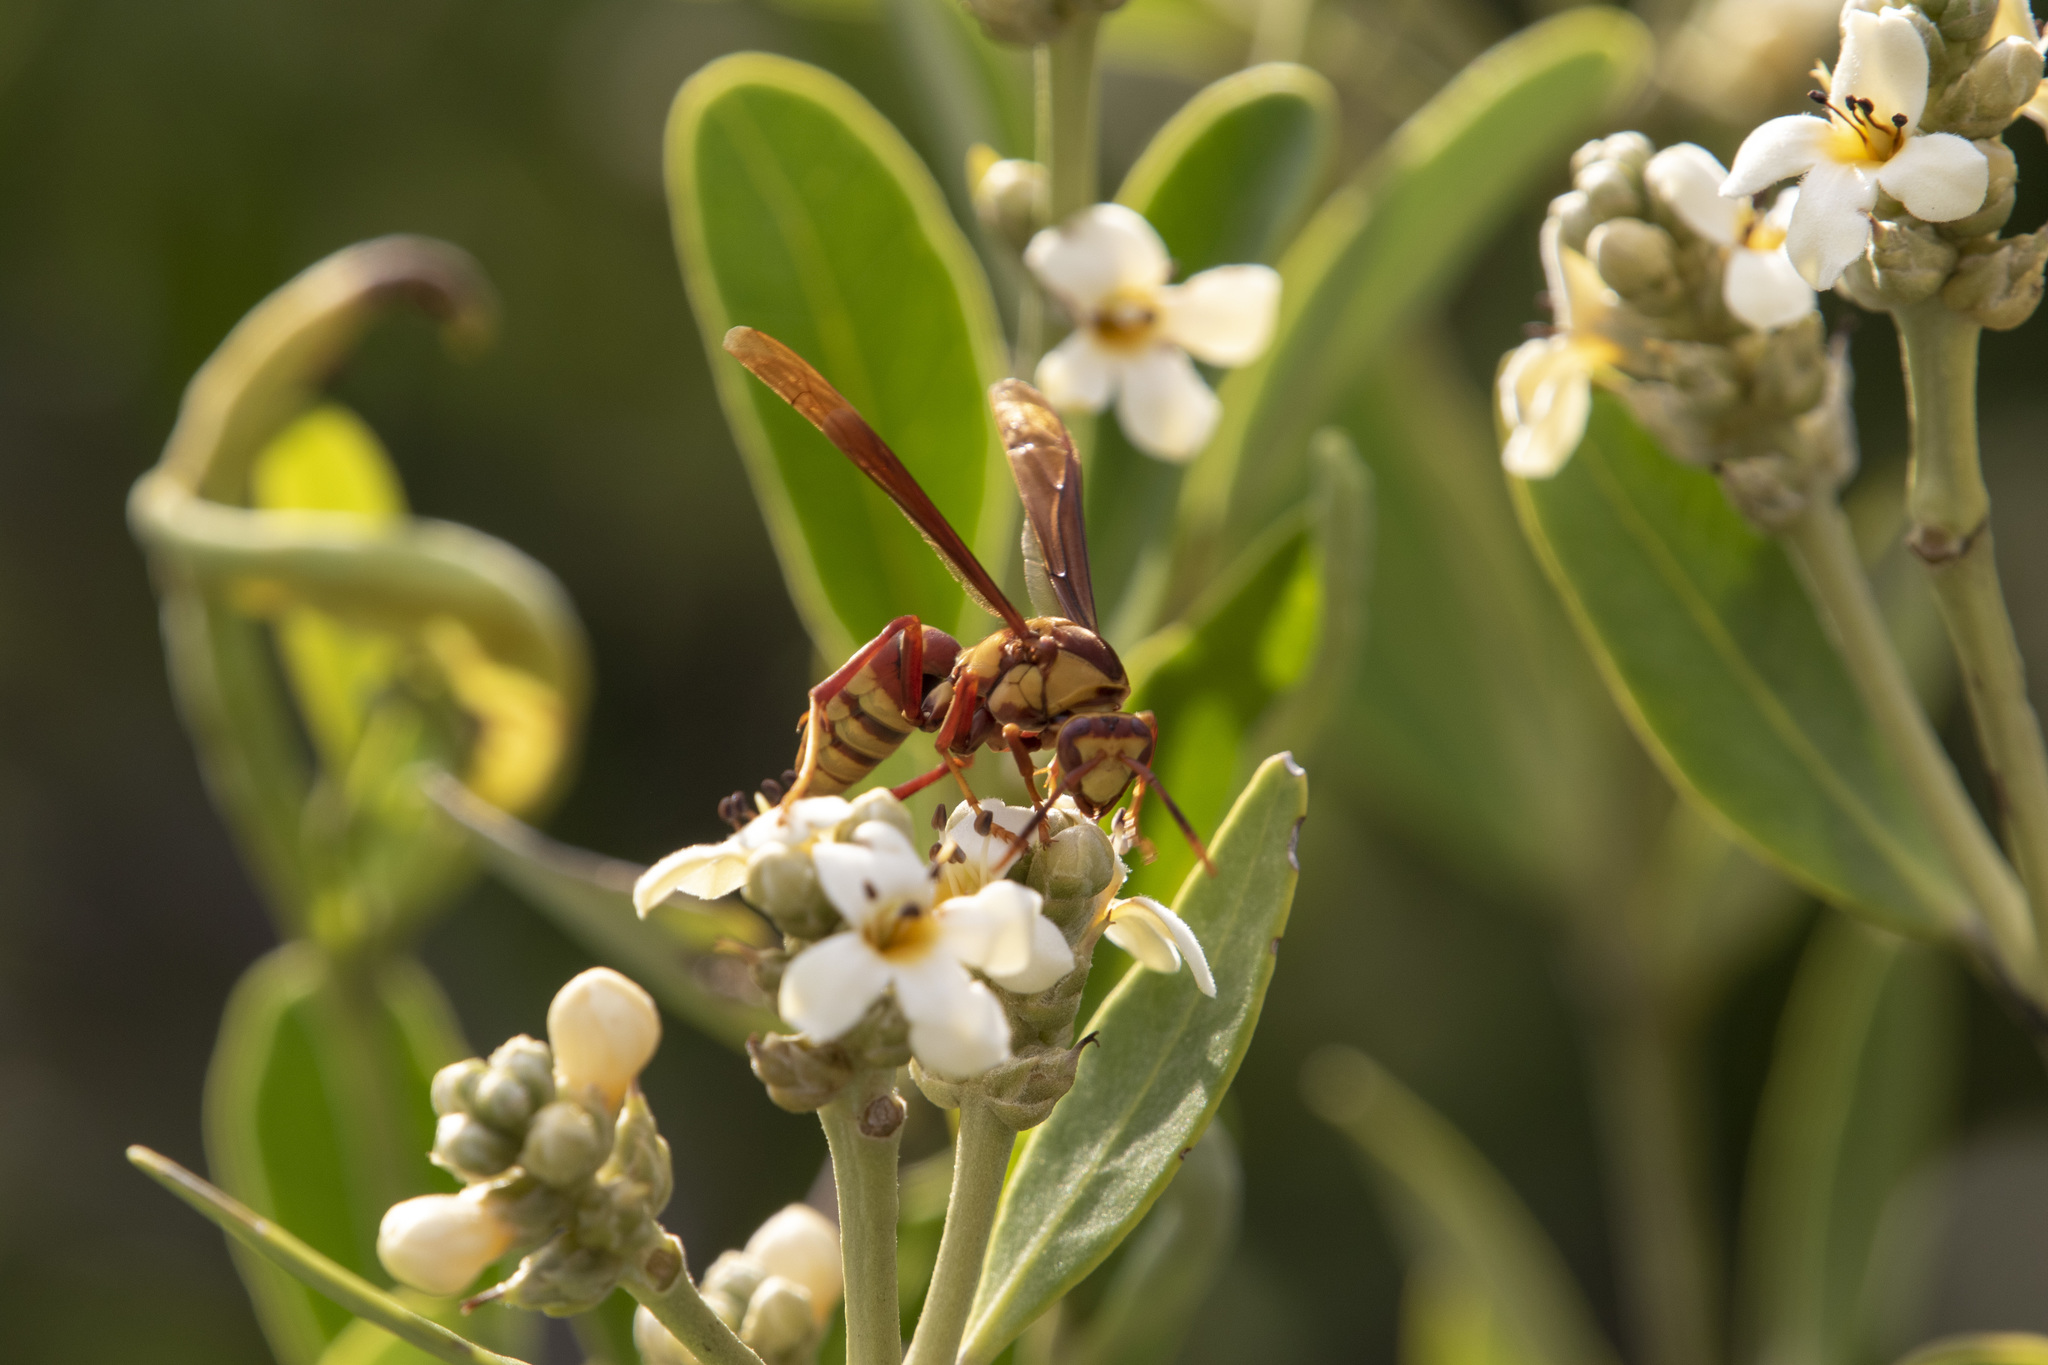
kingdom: Animalia
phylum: Arthropoda
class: Insecta
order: Hymenoptera
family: Eumenidae
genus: Polistes
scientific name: Polistes major
